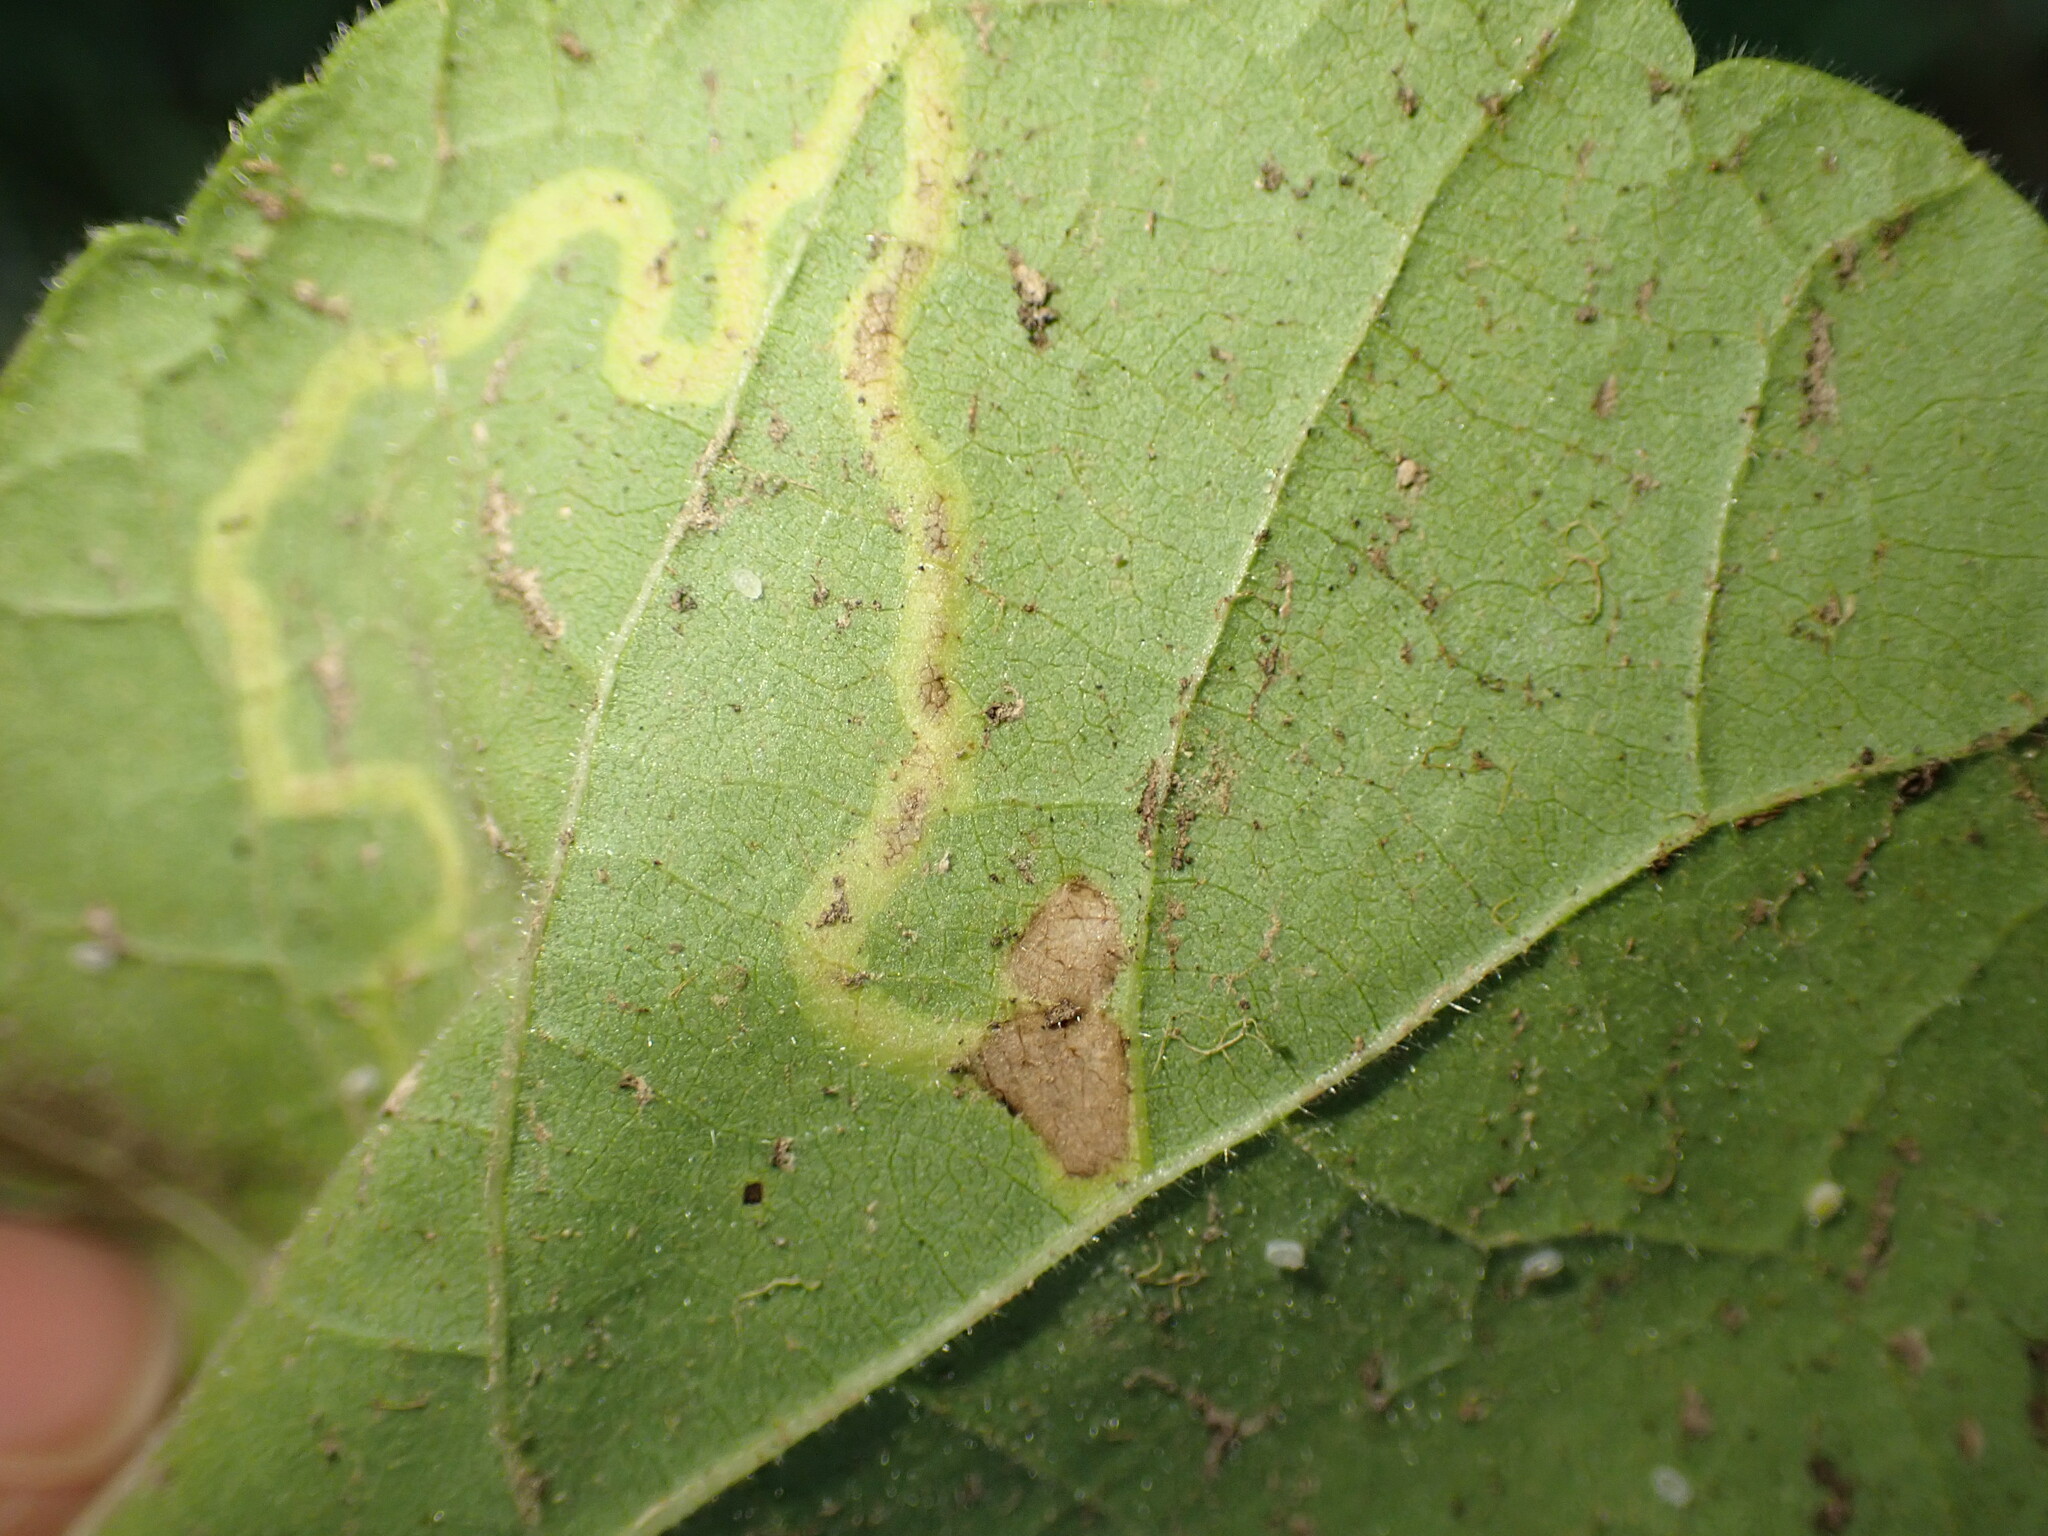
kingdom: Animalia
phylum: Arthropoda
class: Insecta
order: Diptera
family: Agromyzidae
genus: Calycomyza
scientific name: Calycomyza malvae
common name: Mallow leaf miner
